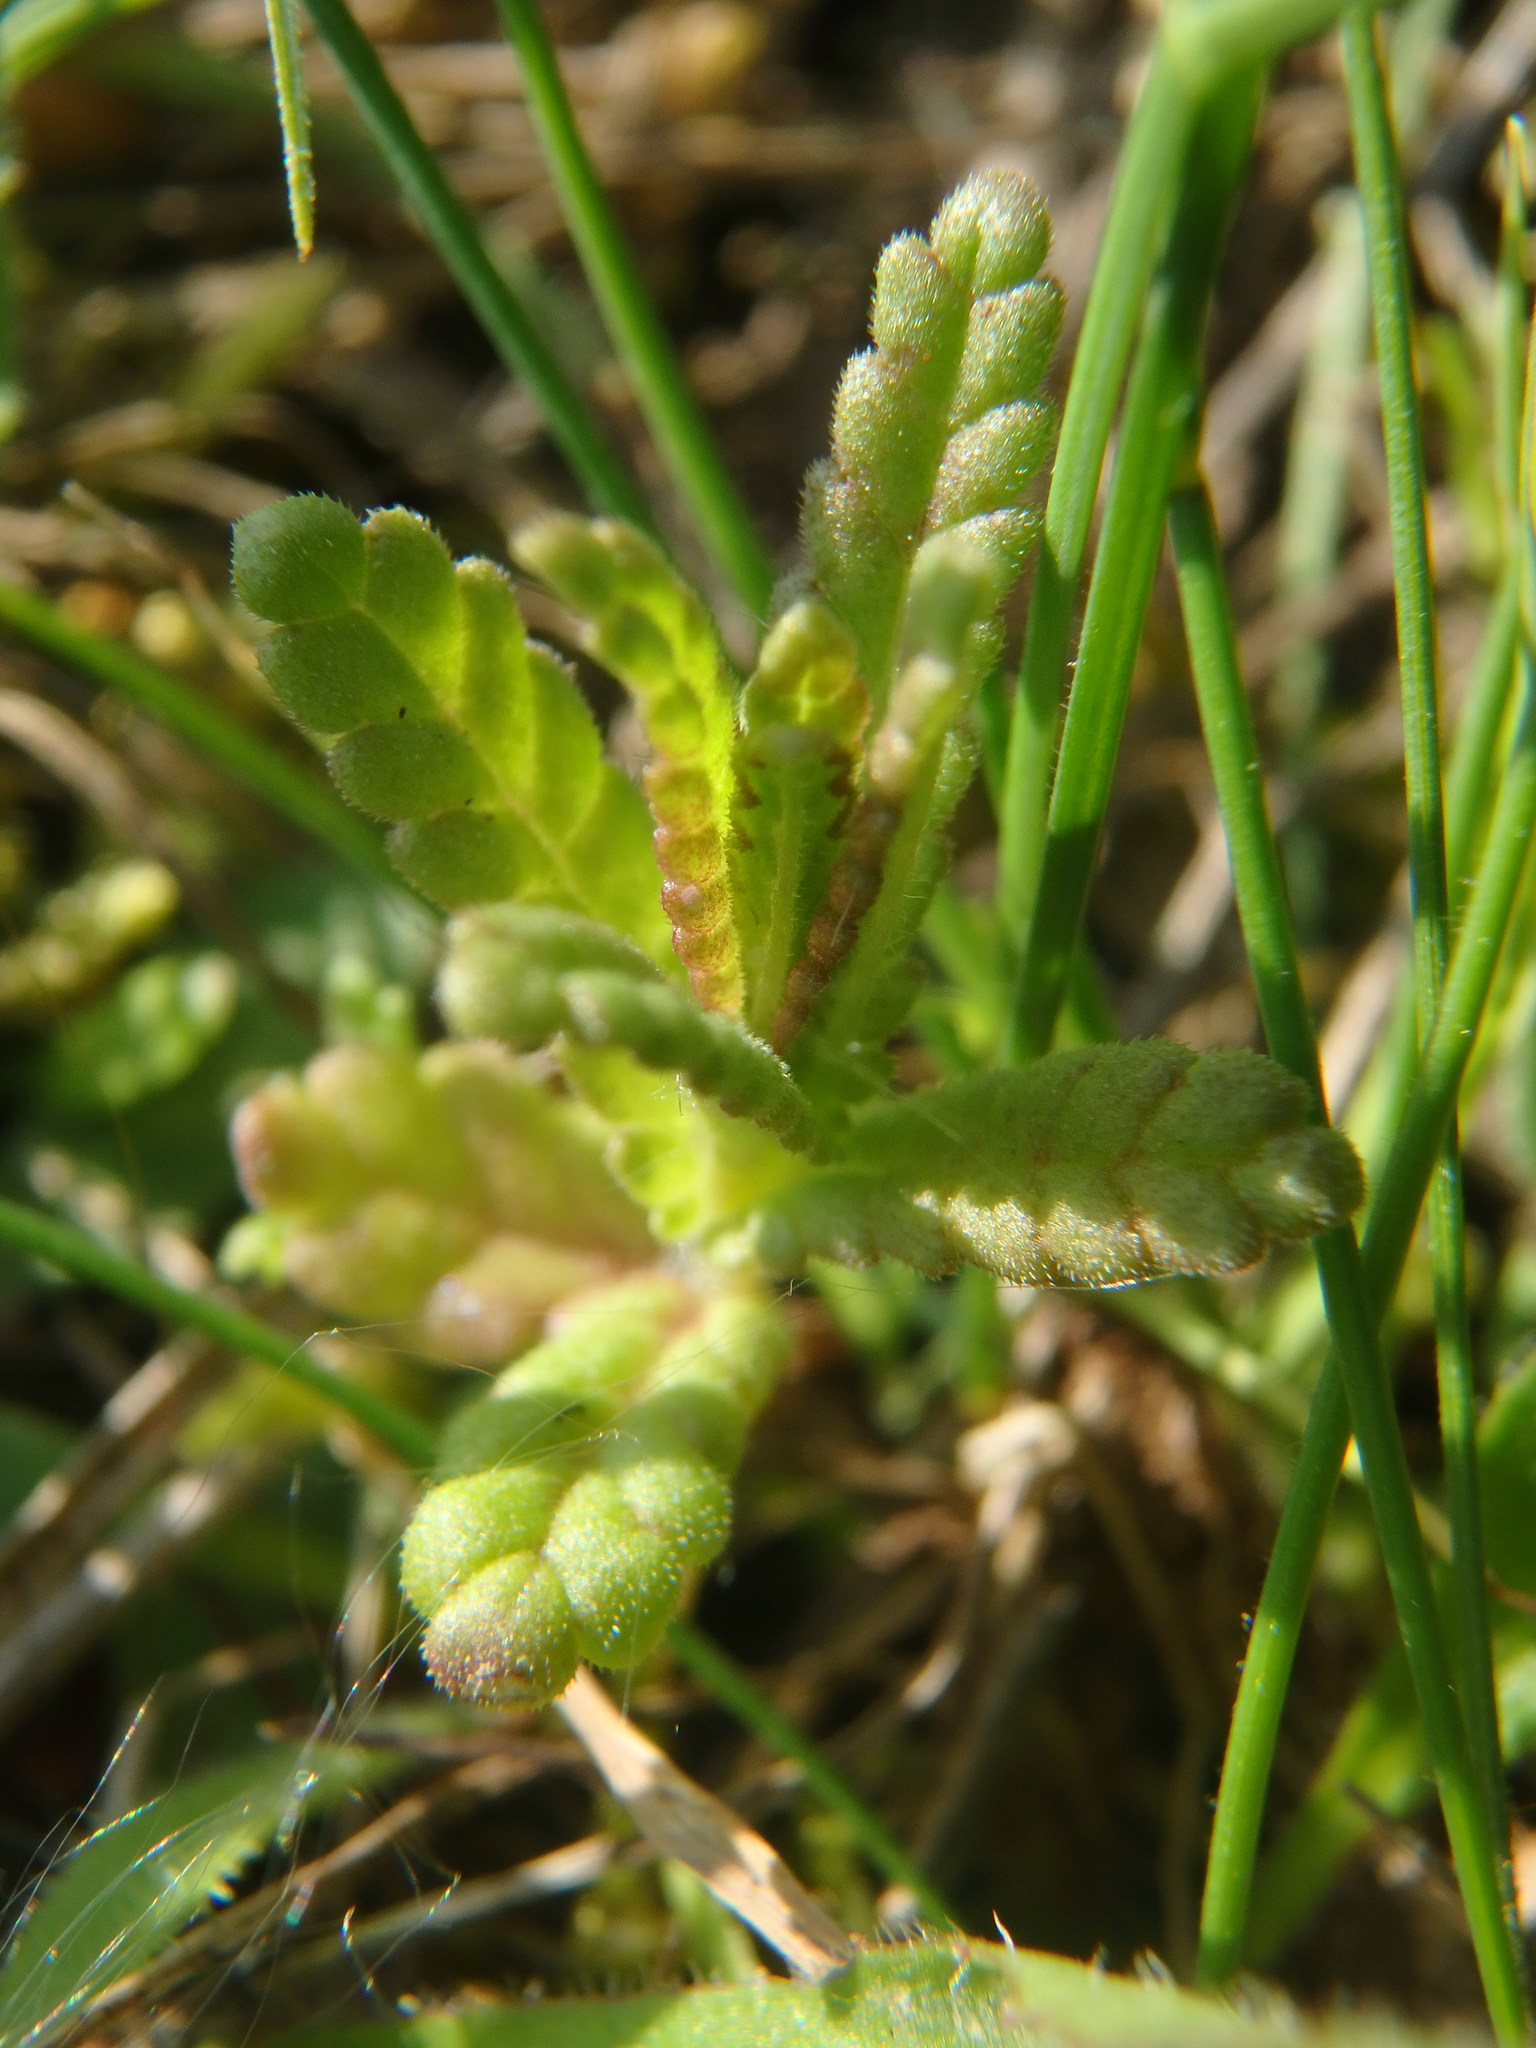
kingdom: Plantae
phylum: Tracheophyta
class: Magnoliopsida
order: Lamiales
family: Orobanchaceae
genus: Rhinanthus
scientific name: Rhinanthus minor
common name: Yellow-rattle
